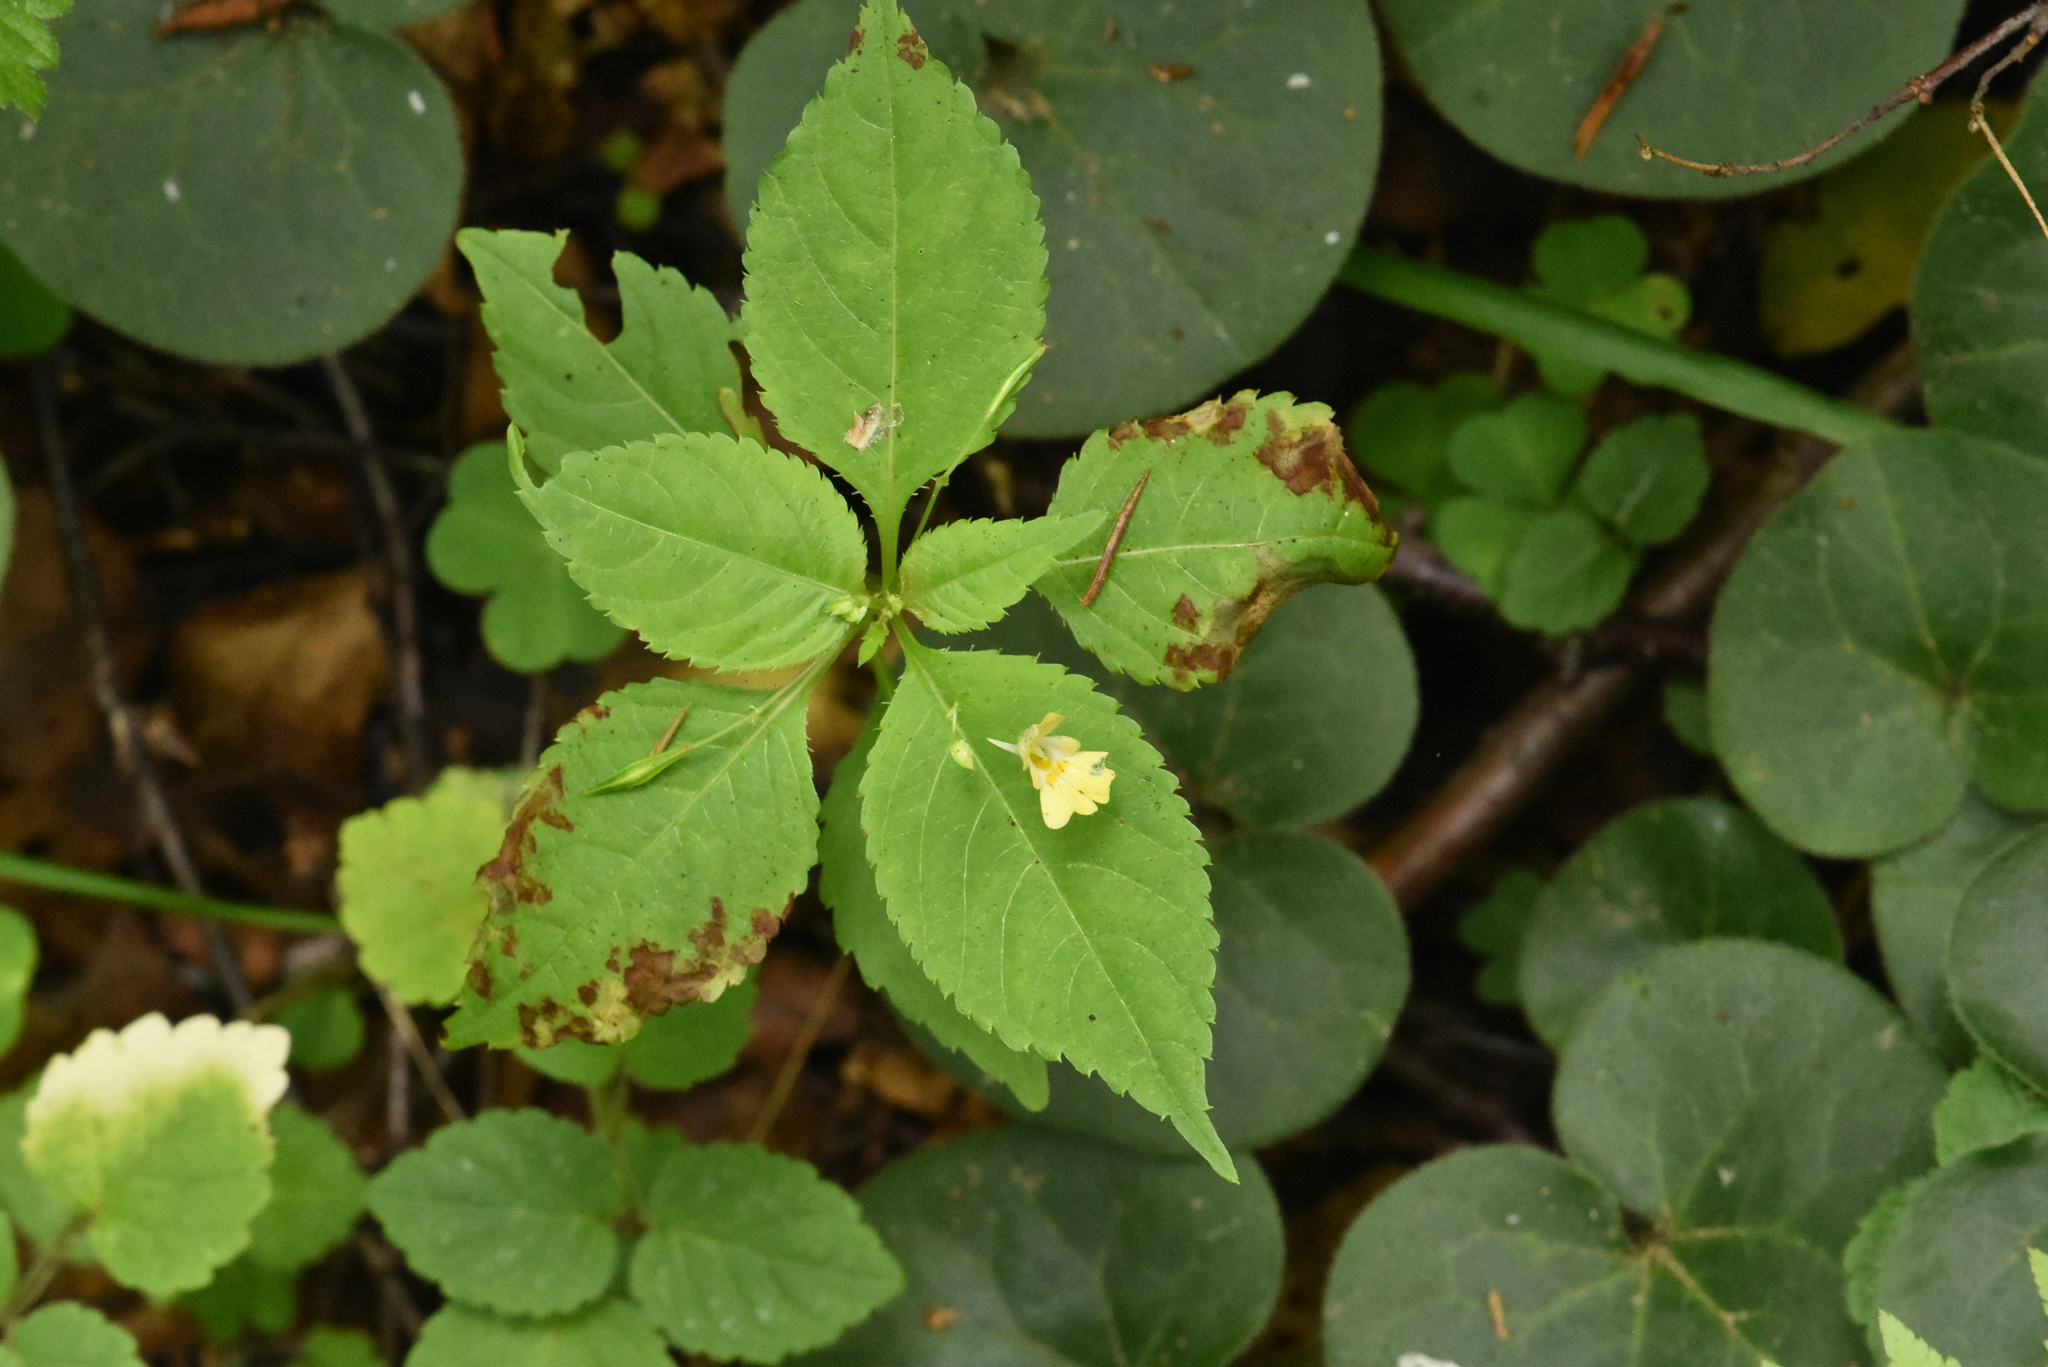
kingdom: Plantae
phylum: Tracheophyta
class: Magnoliopsida
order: Ericales
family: Balsaminaceae
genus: Impatiens
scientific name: Impatiens parviflora
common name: Small balsam
